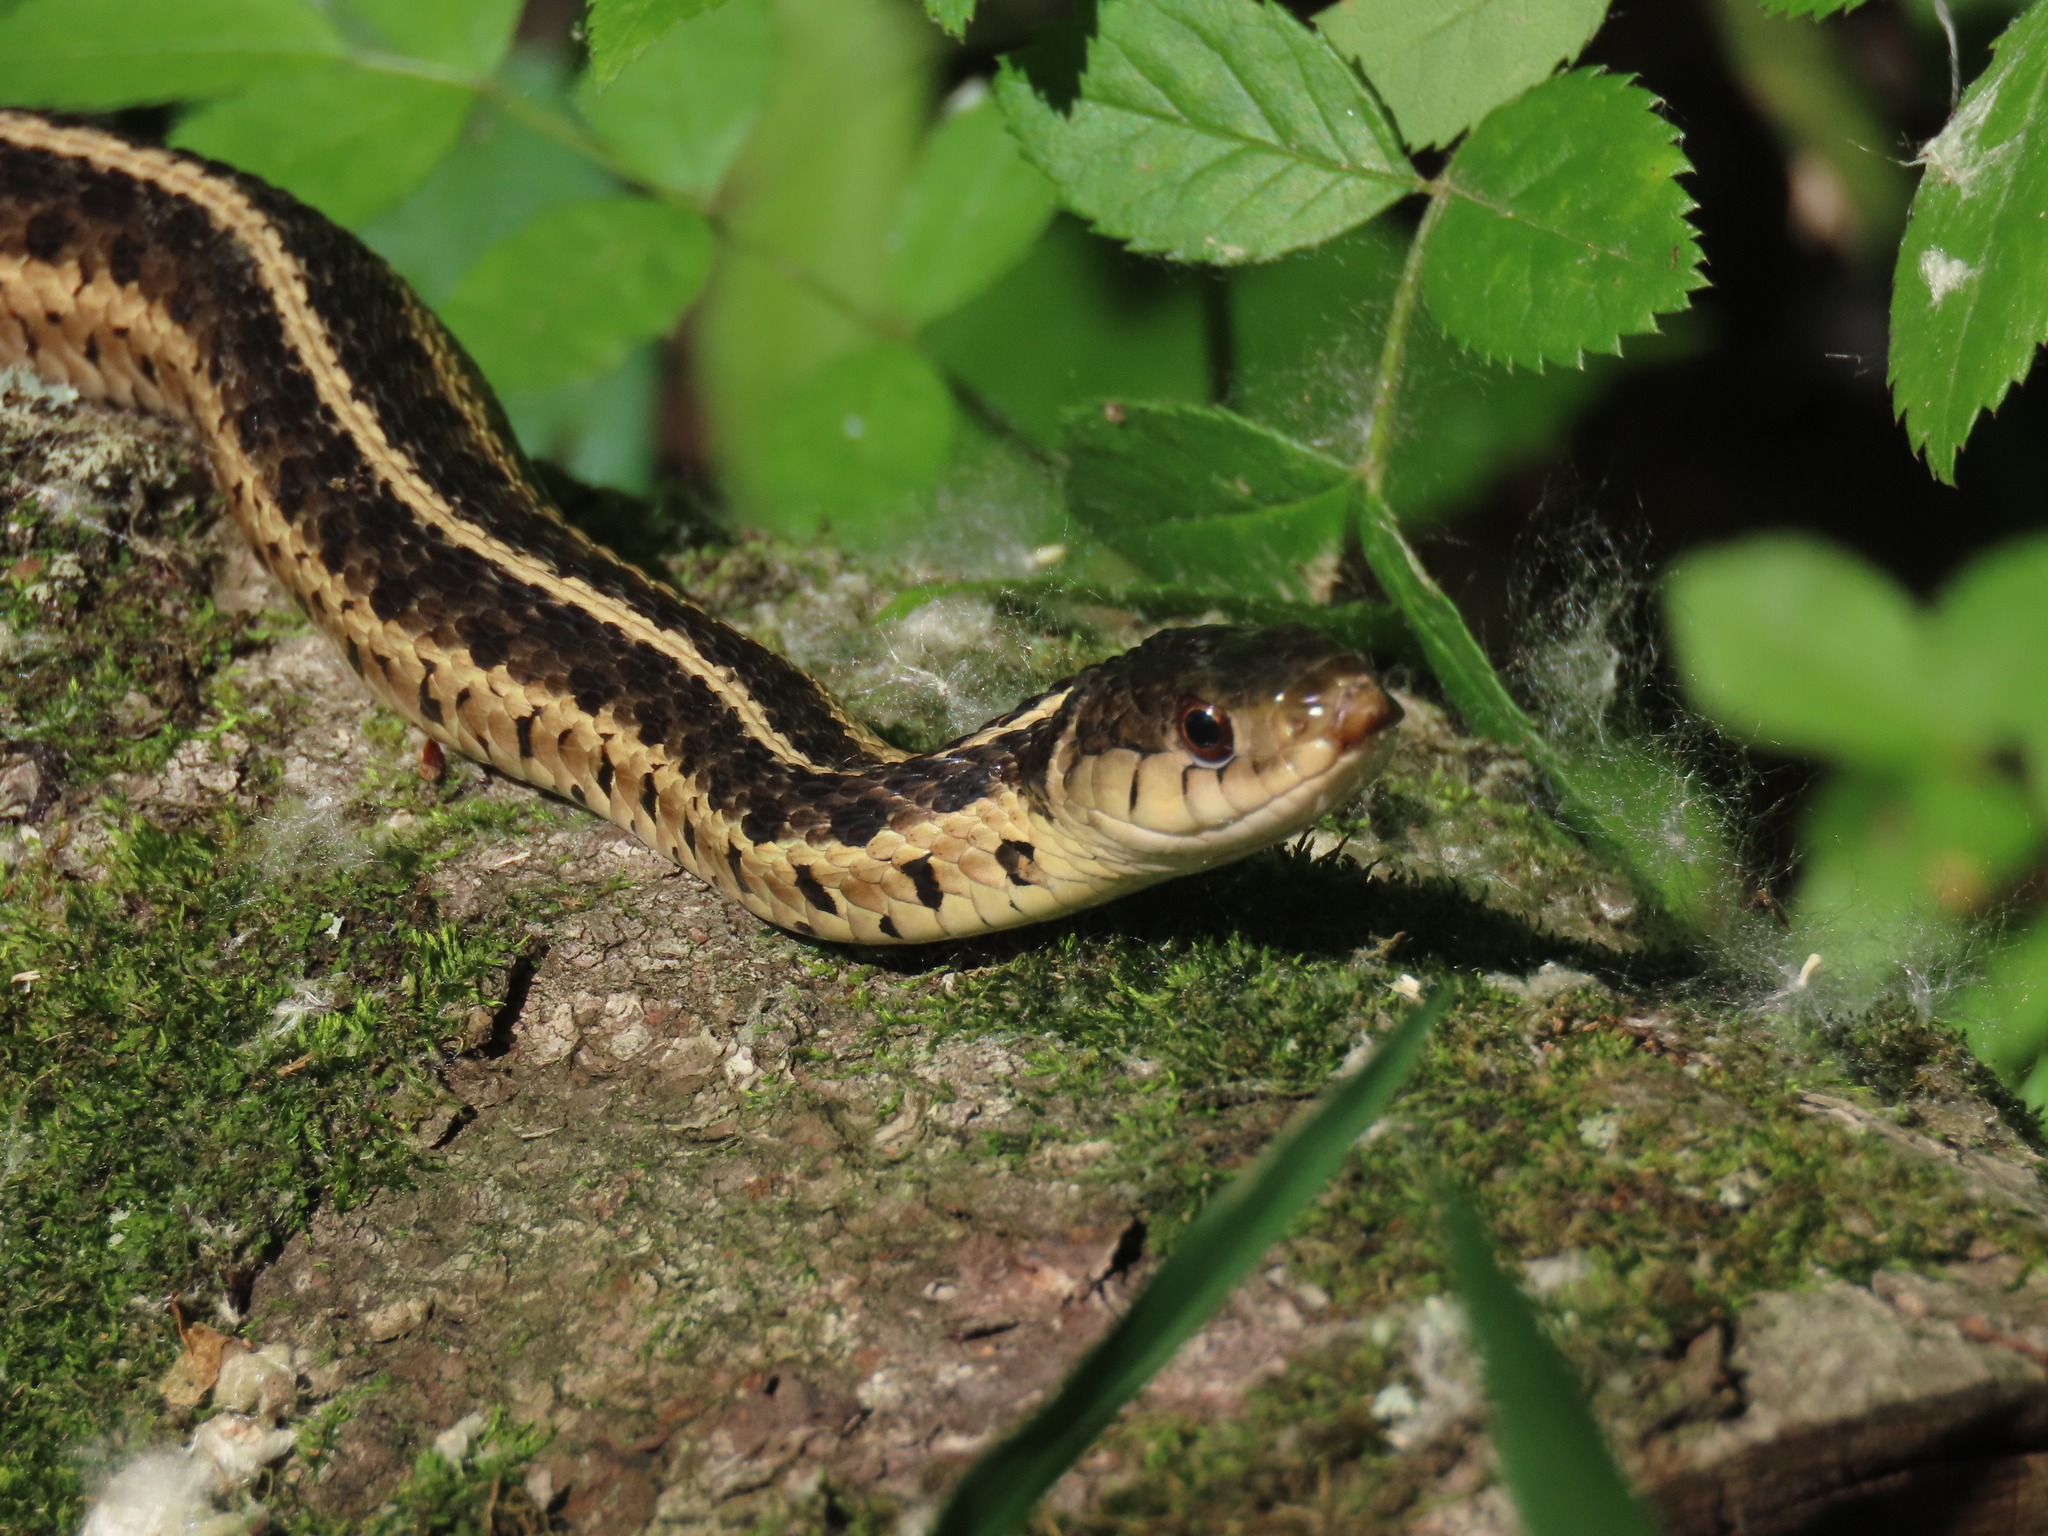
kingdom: Animalia
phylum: Chordata
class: Squamata
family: Colubridae
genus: Thamnophis
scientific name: Thamnophis sirtalis
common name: Common garter snake
